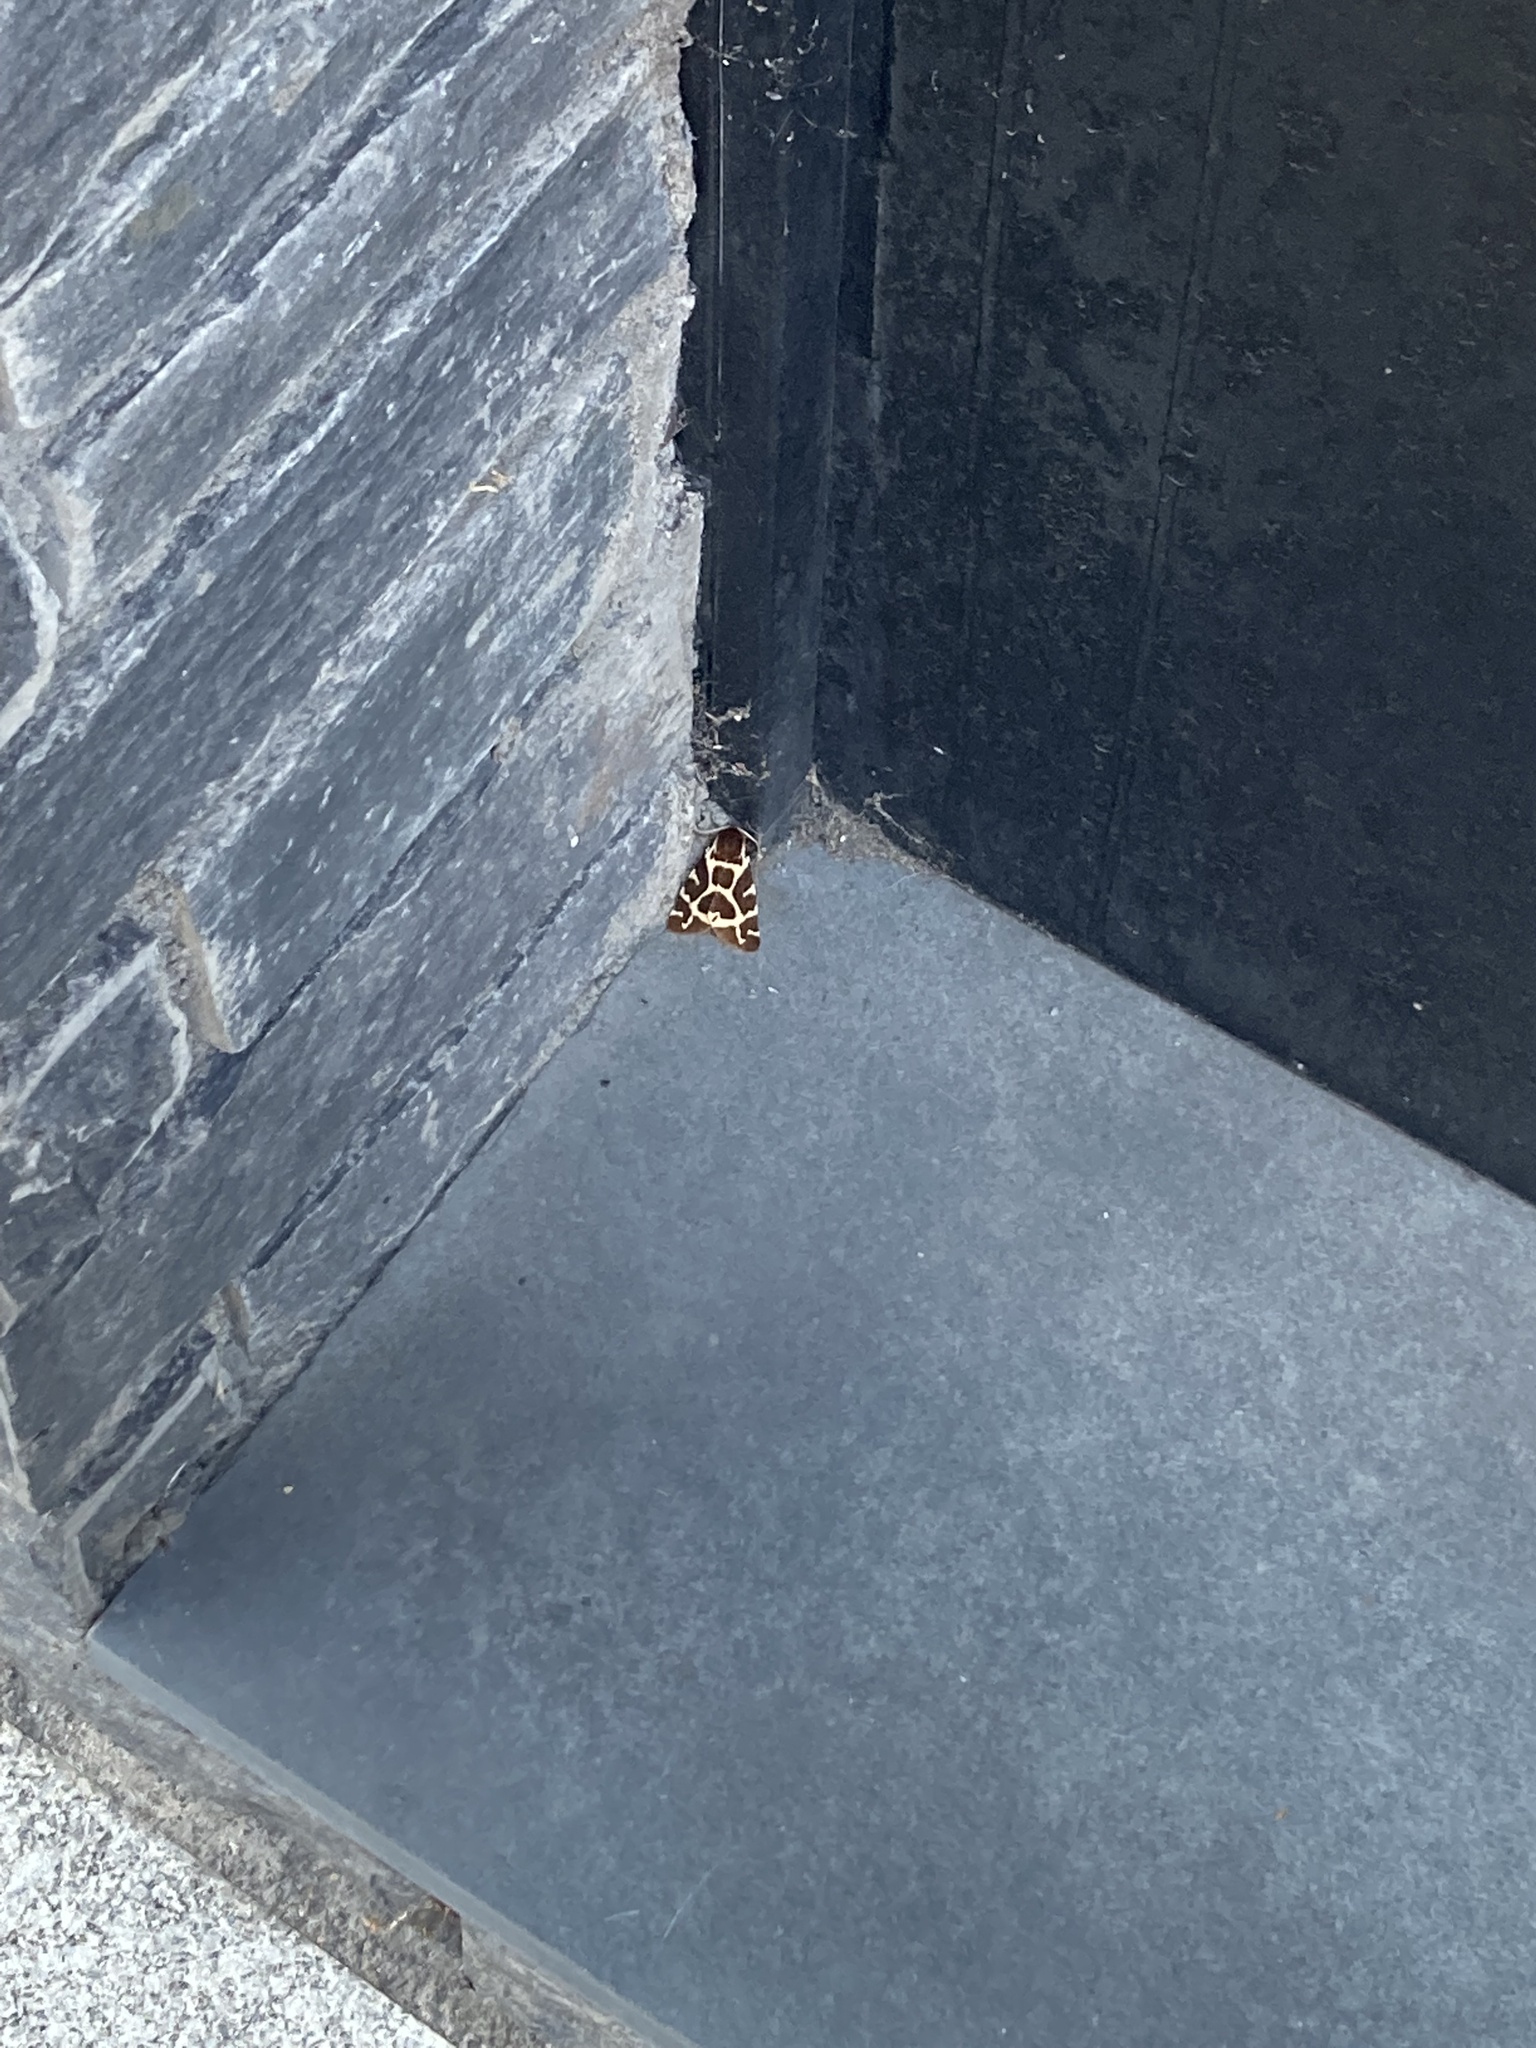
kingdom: Animalia
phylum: Arthropoda
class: Insecta
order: Lepidoptera
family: Erebidae
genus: Arctia
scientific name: Arctia caja
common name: Garden tiger
